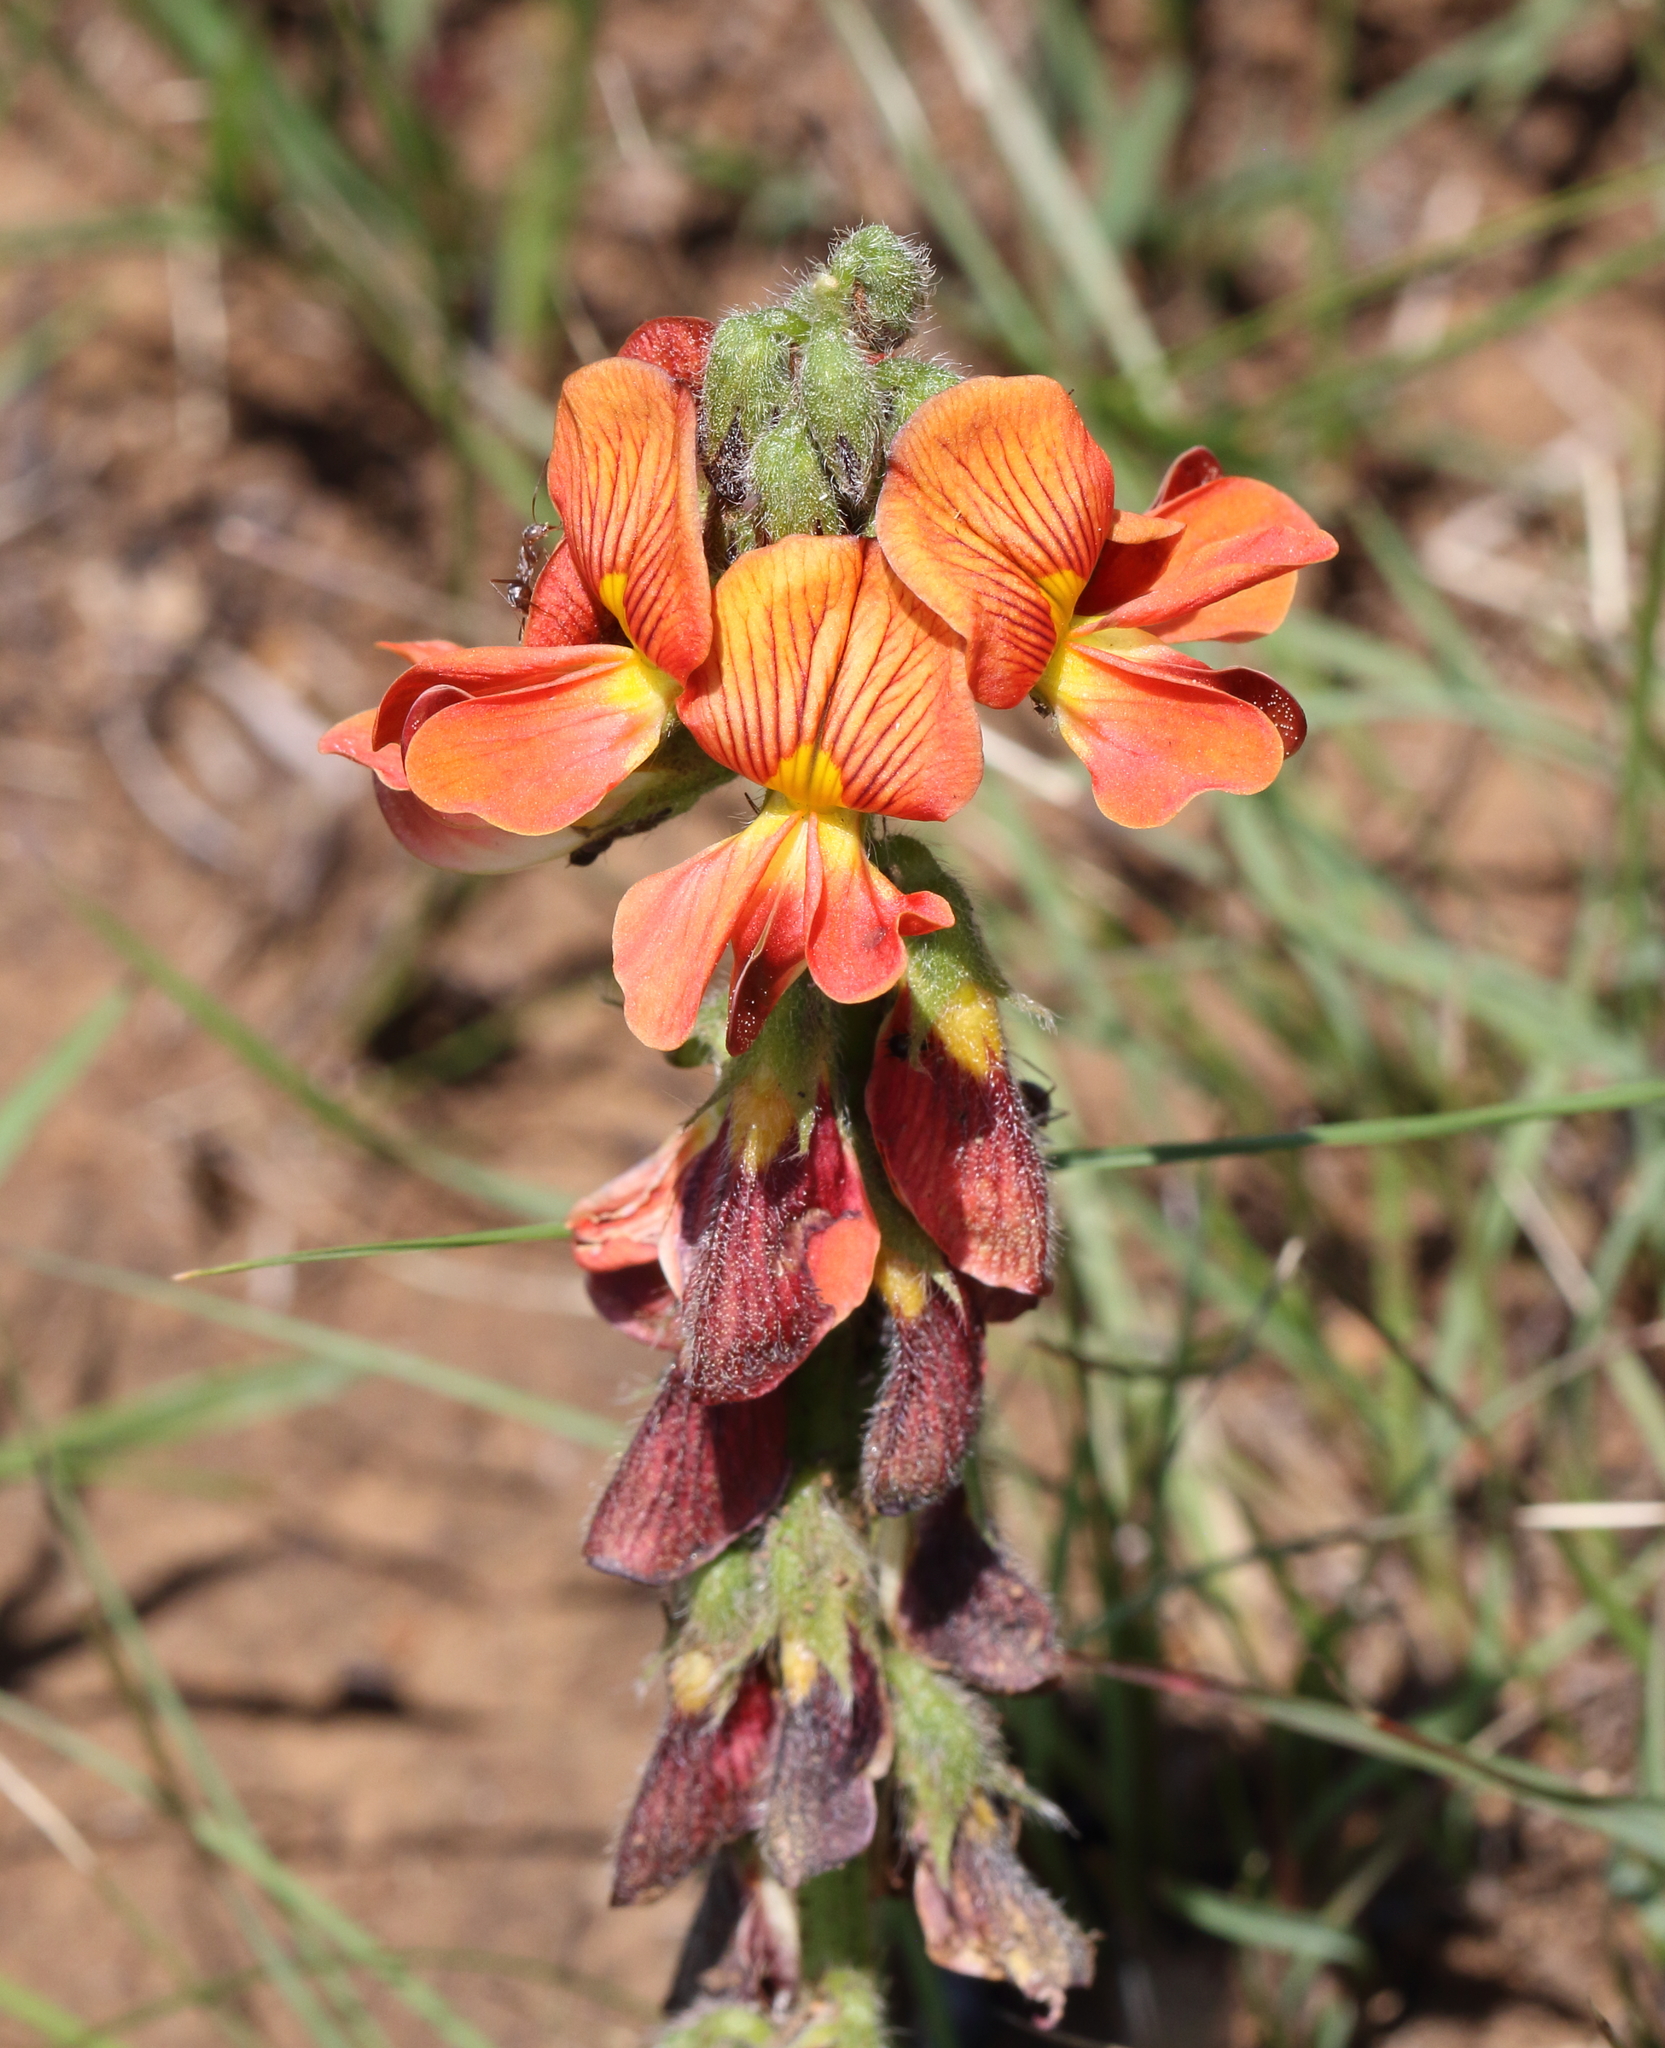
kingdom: Plantae
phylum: Tracheophyta
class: Magnoliopsida
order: Fabales
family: Fabaceae
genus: Eriosema
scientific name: Eriosema distinctum
